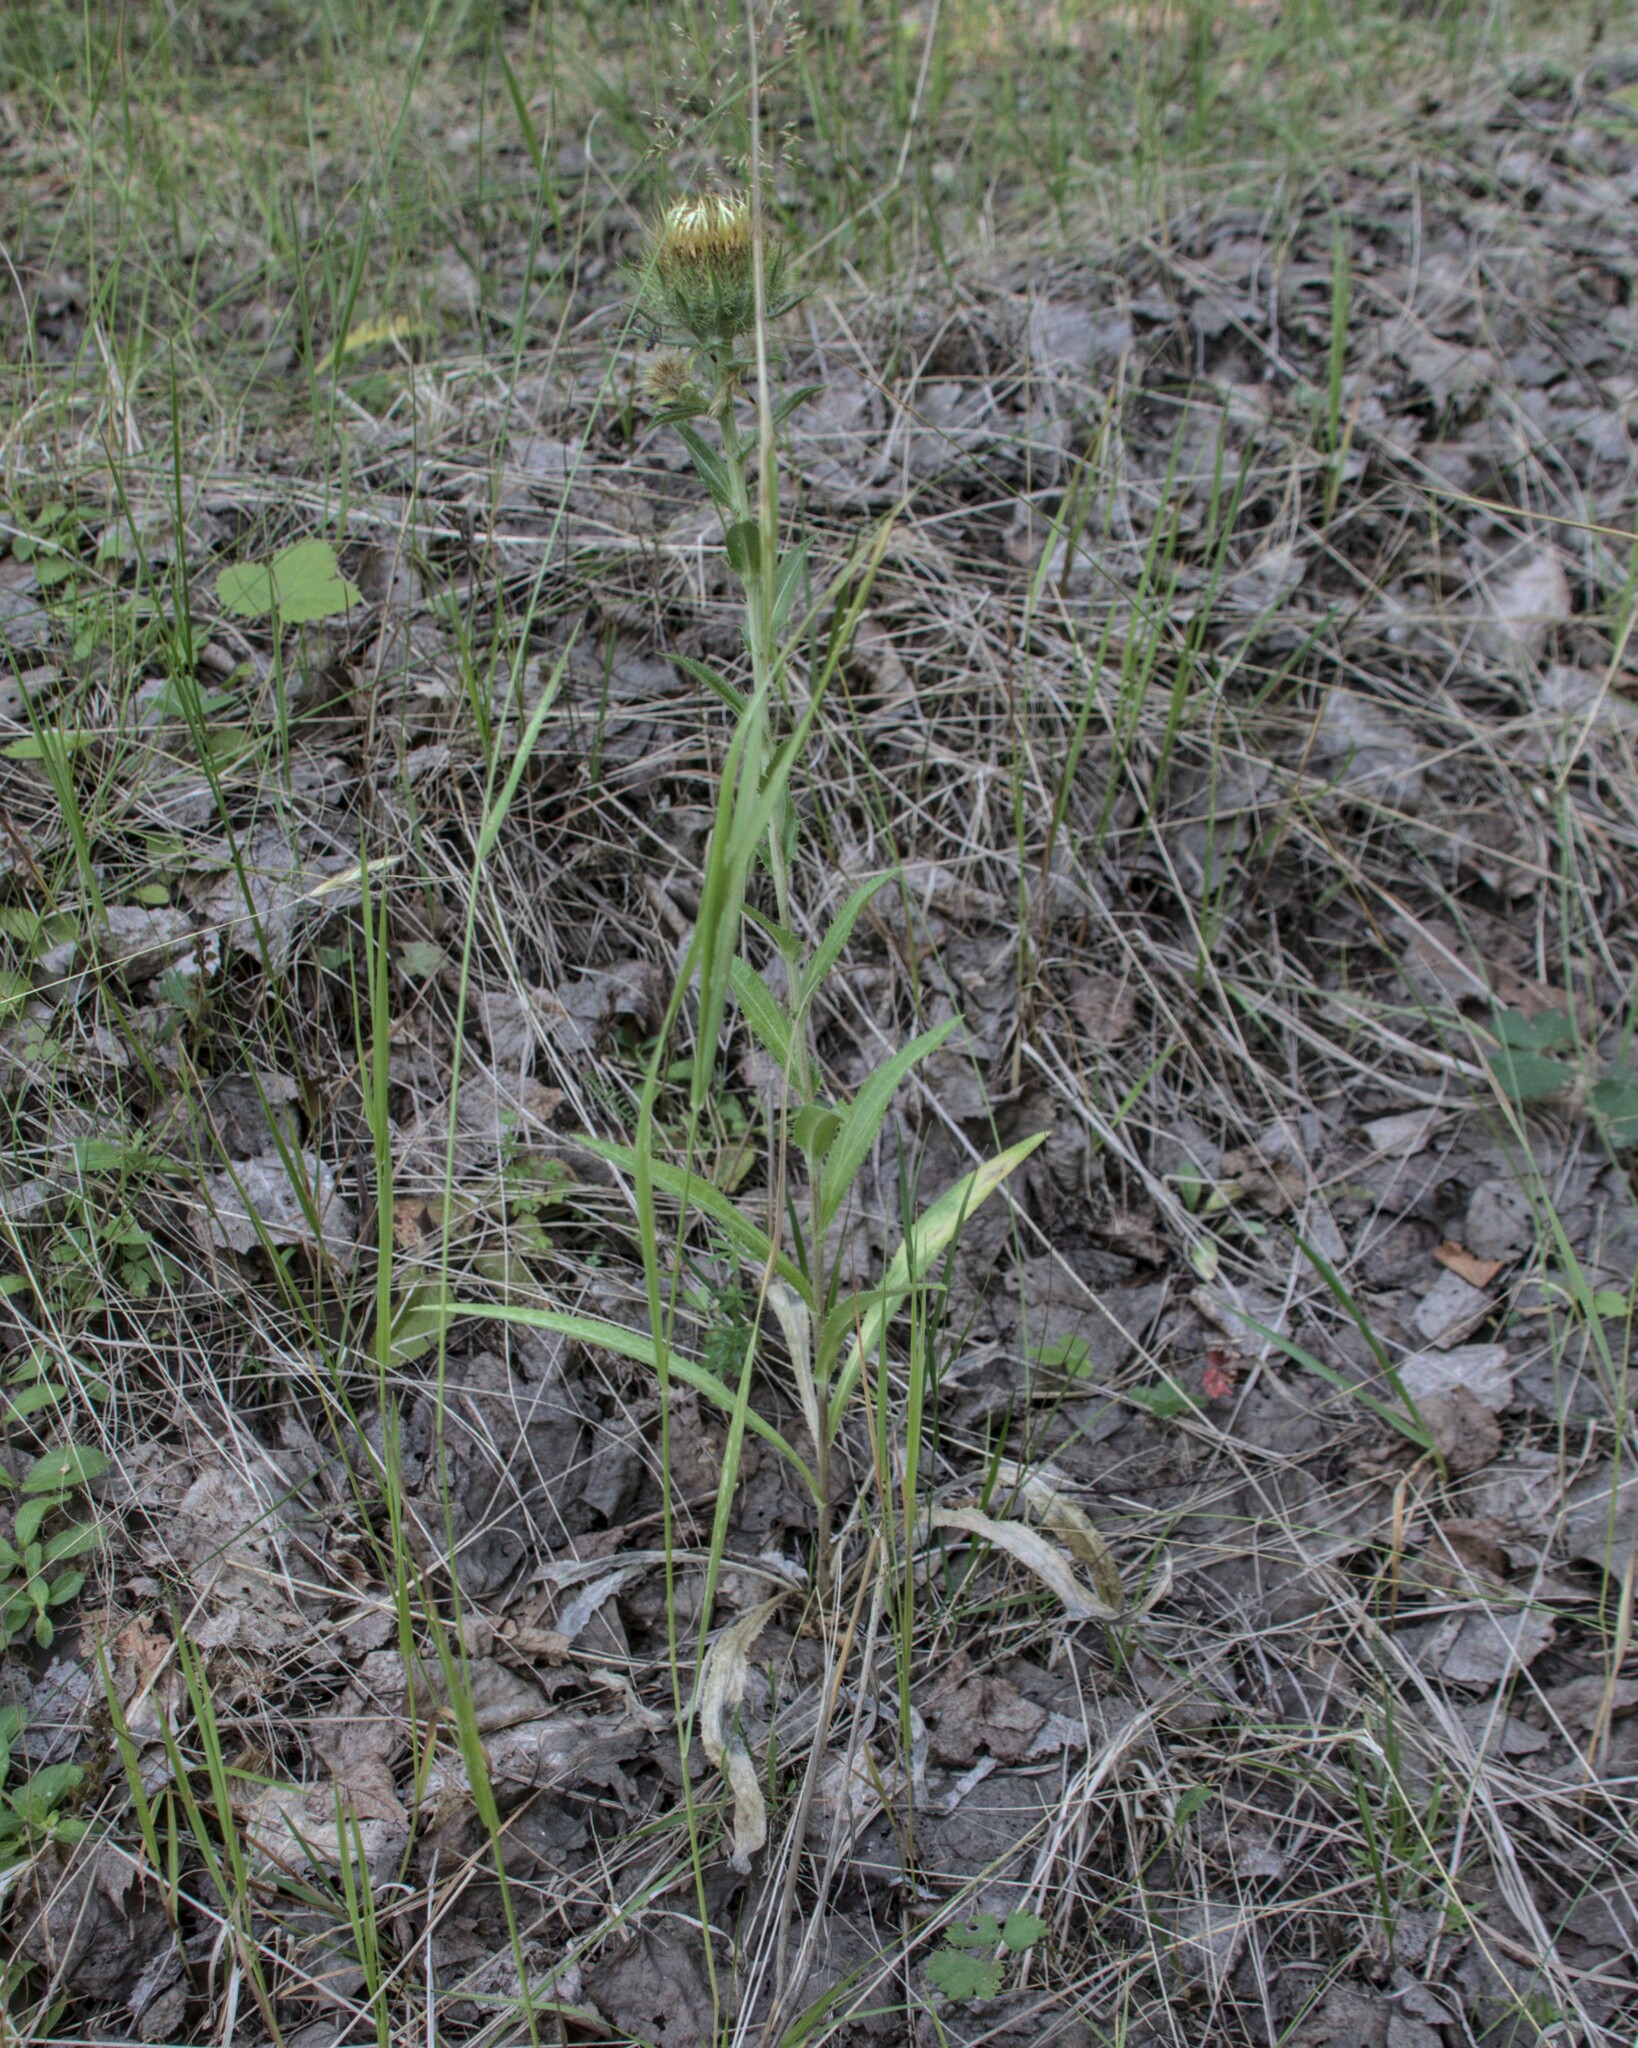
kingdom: Plantae
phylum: Tracheophyta
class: Magnoliopsida
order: Asterales
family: Asteraceae
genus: Carlina
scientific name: Carlina biebersteinii
